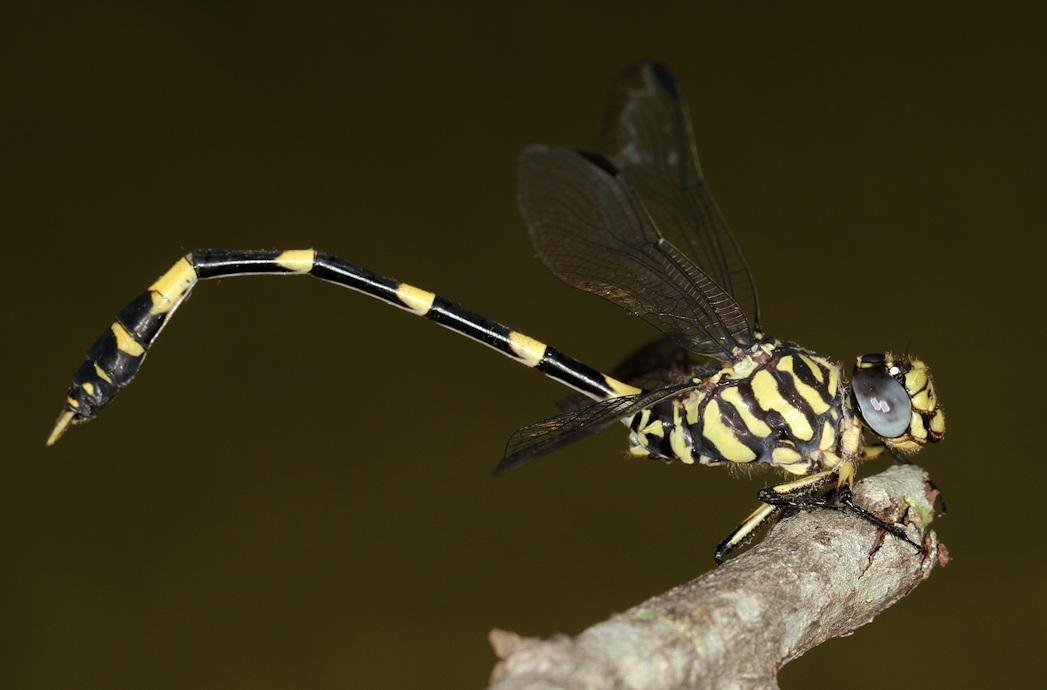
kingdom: Animalia
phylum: Arthropoda
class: Insecta
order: Odonata
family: Gomphidae
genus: Gomphidia
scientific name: Gomphidia quarrei
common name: Southern fingertail
